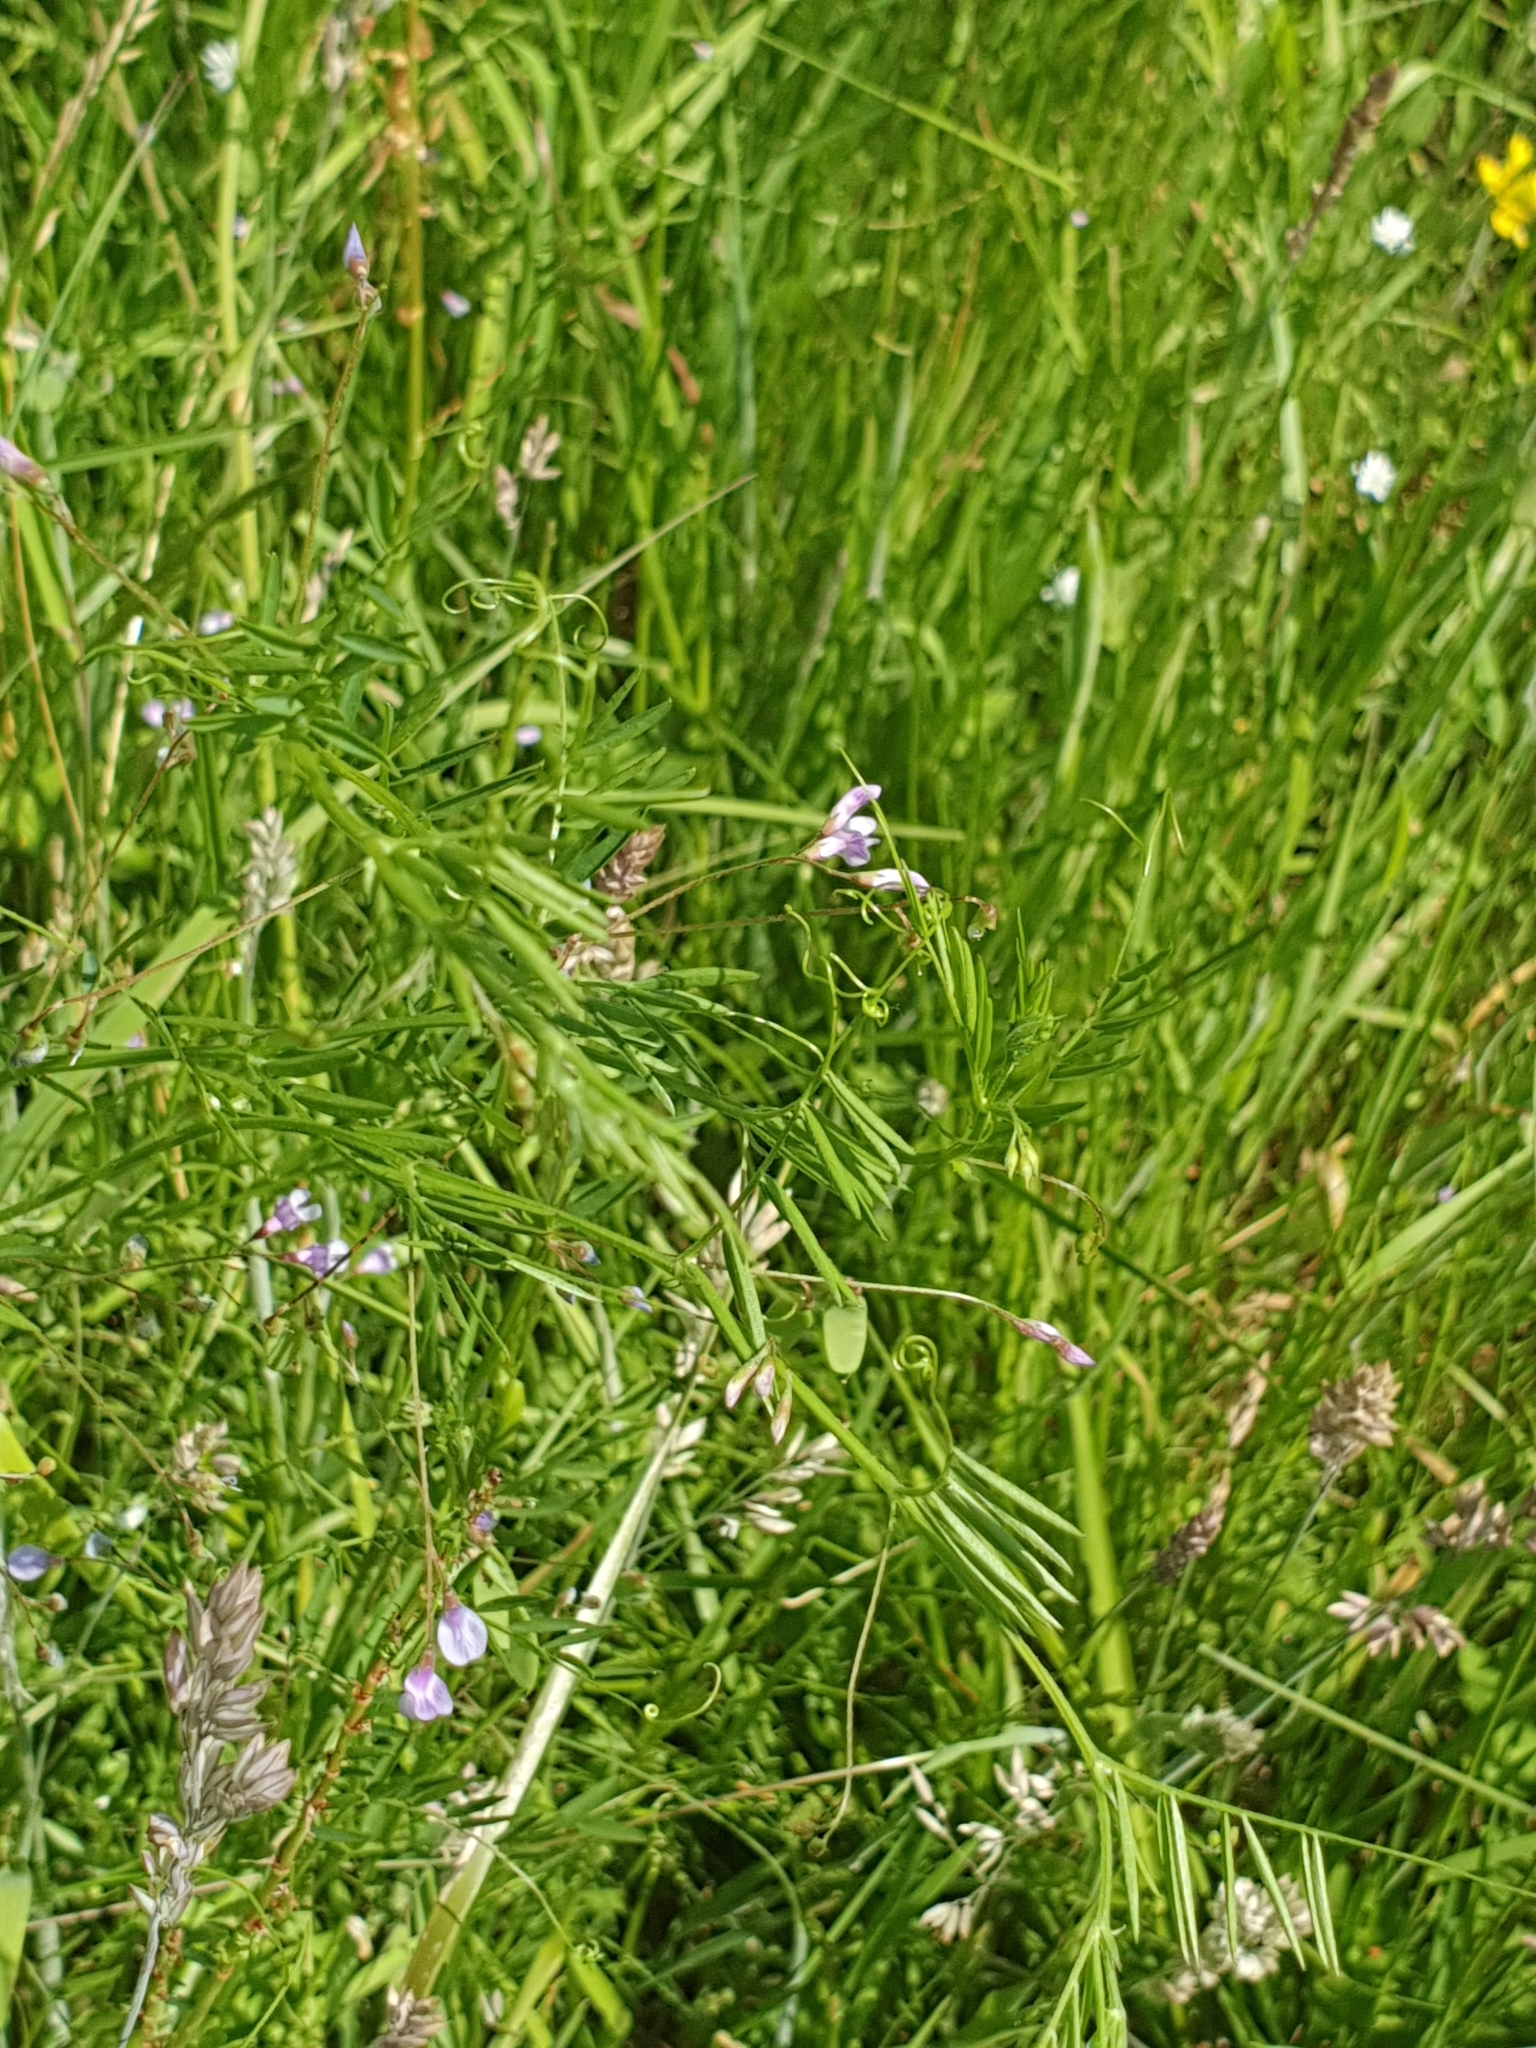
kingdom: Plantae
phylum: Tracheophyta
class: Magnoliopsida
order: Fabales
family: Fabaceae
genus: Vicia
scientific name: Vicia tetrasperma
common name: Smooth tare
